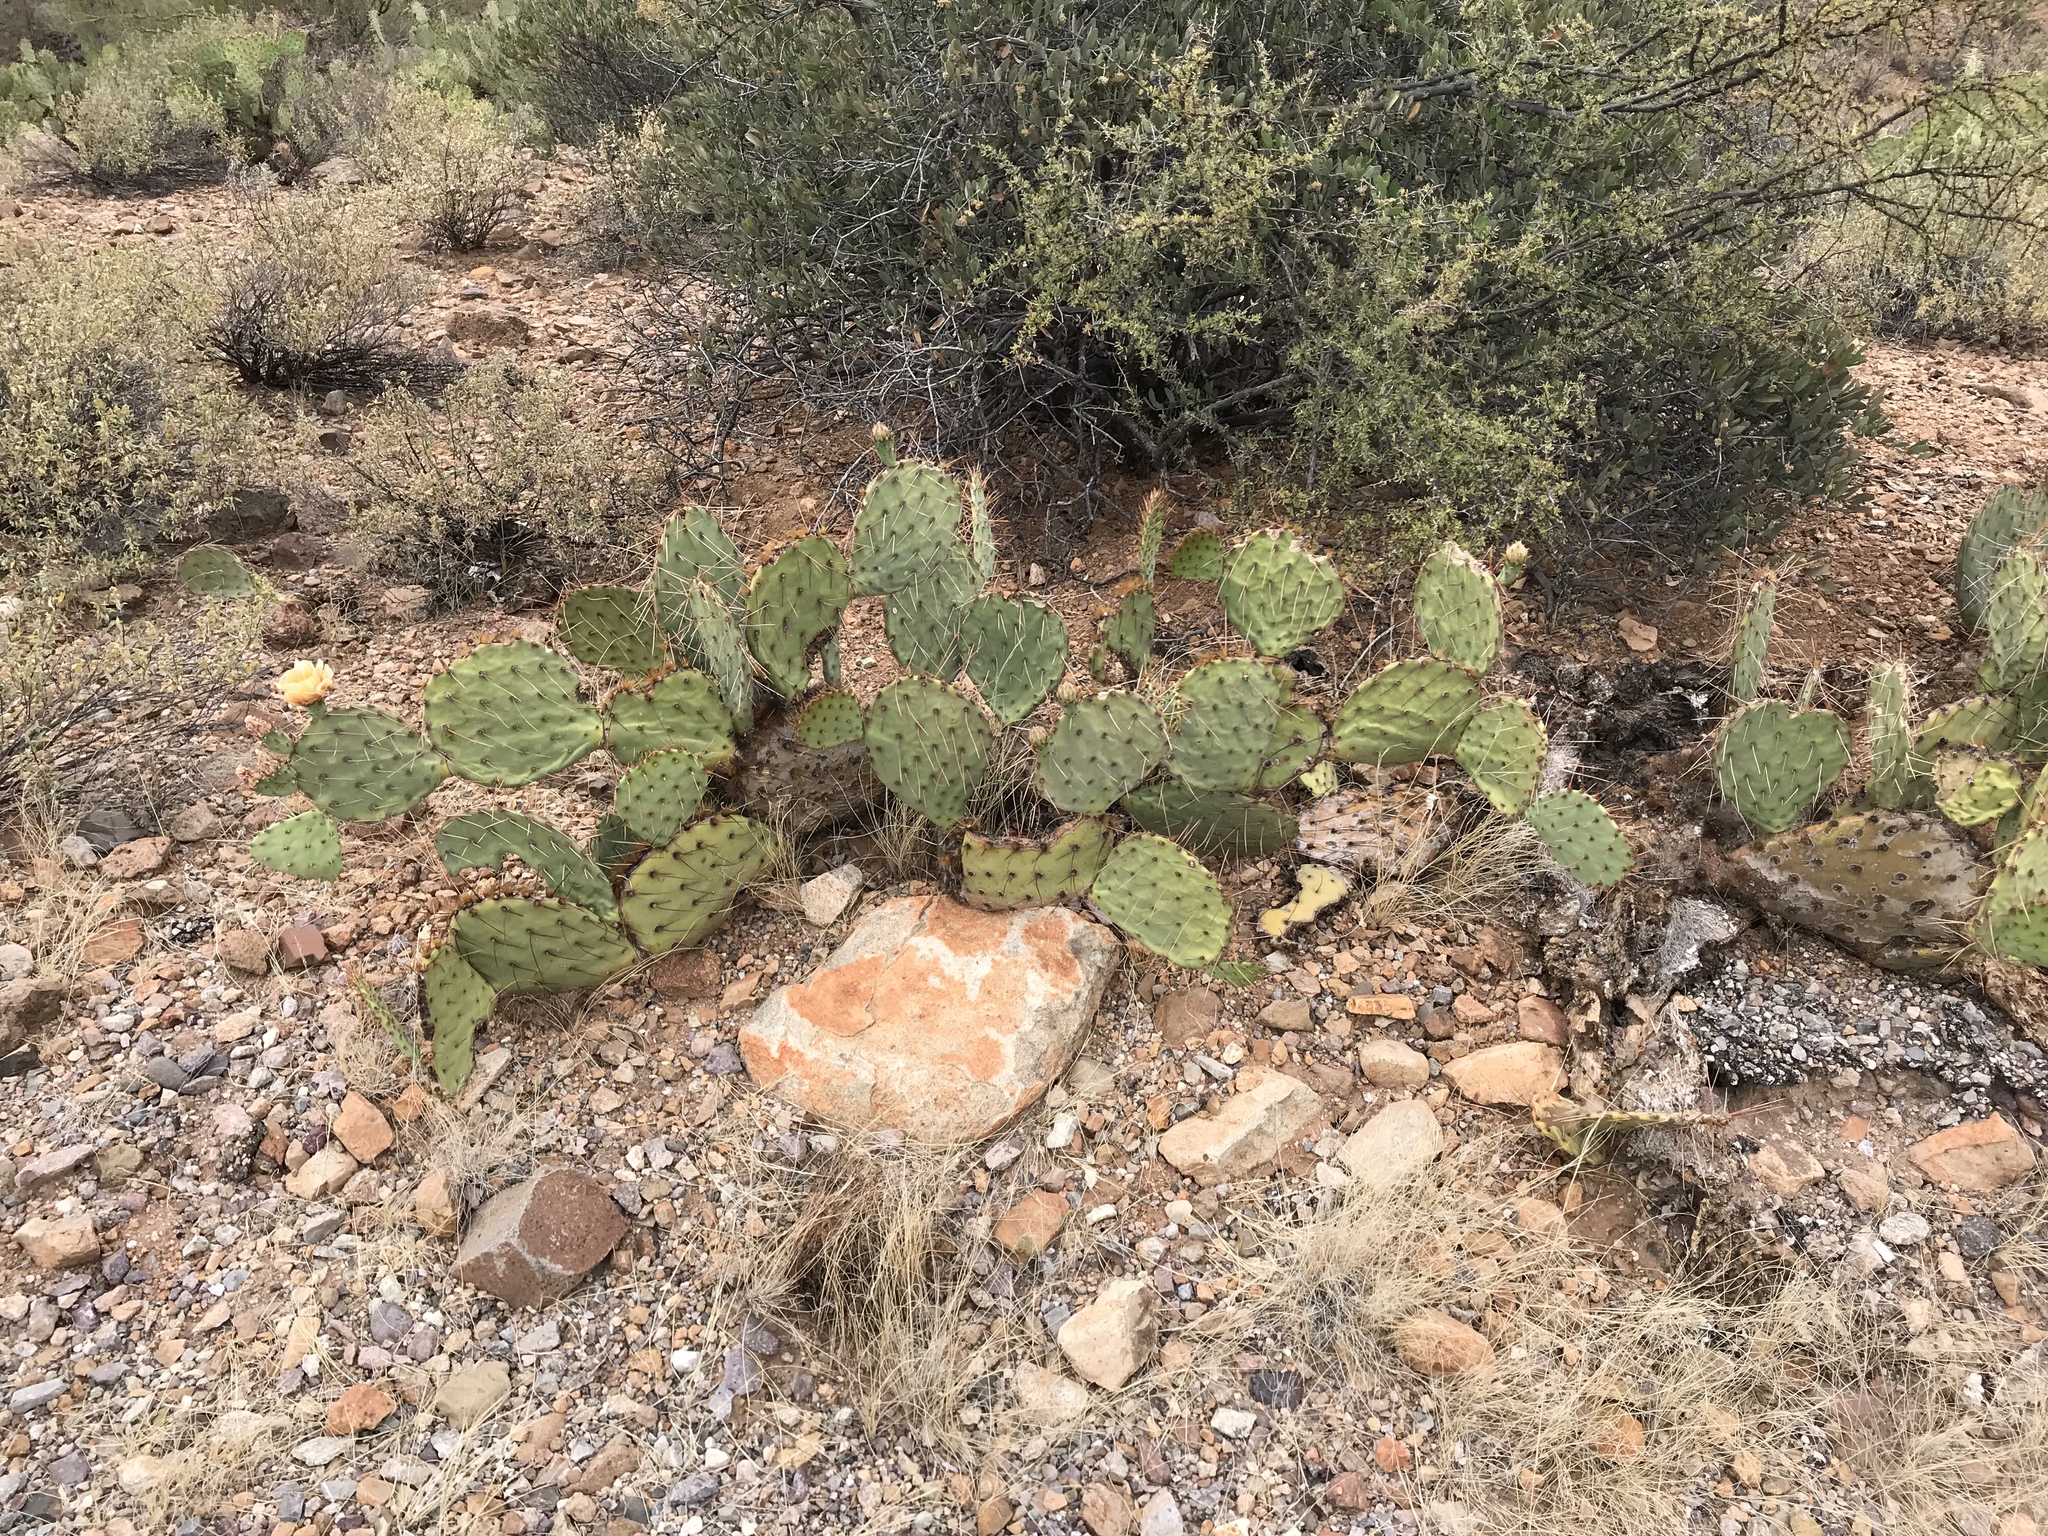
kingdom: Plantae
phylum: Tracheophyta
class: Magnoliopsida
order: Caryophyllales
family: Cactaceae
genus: Opuntia
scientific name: Opuntia phaeacantha
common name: New mexico prickly-pear
